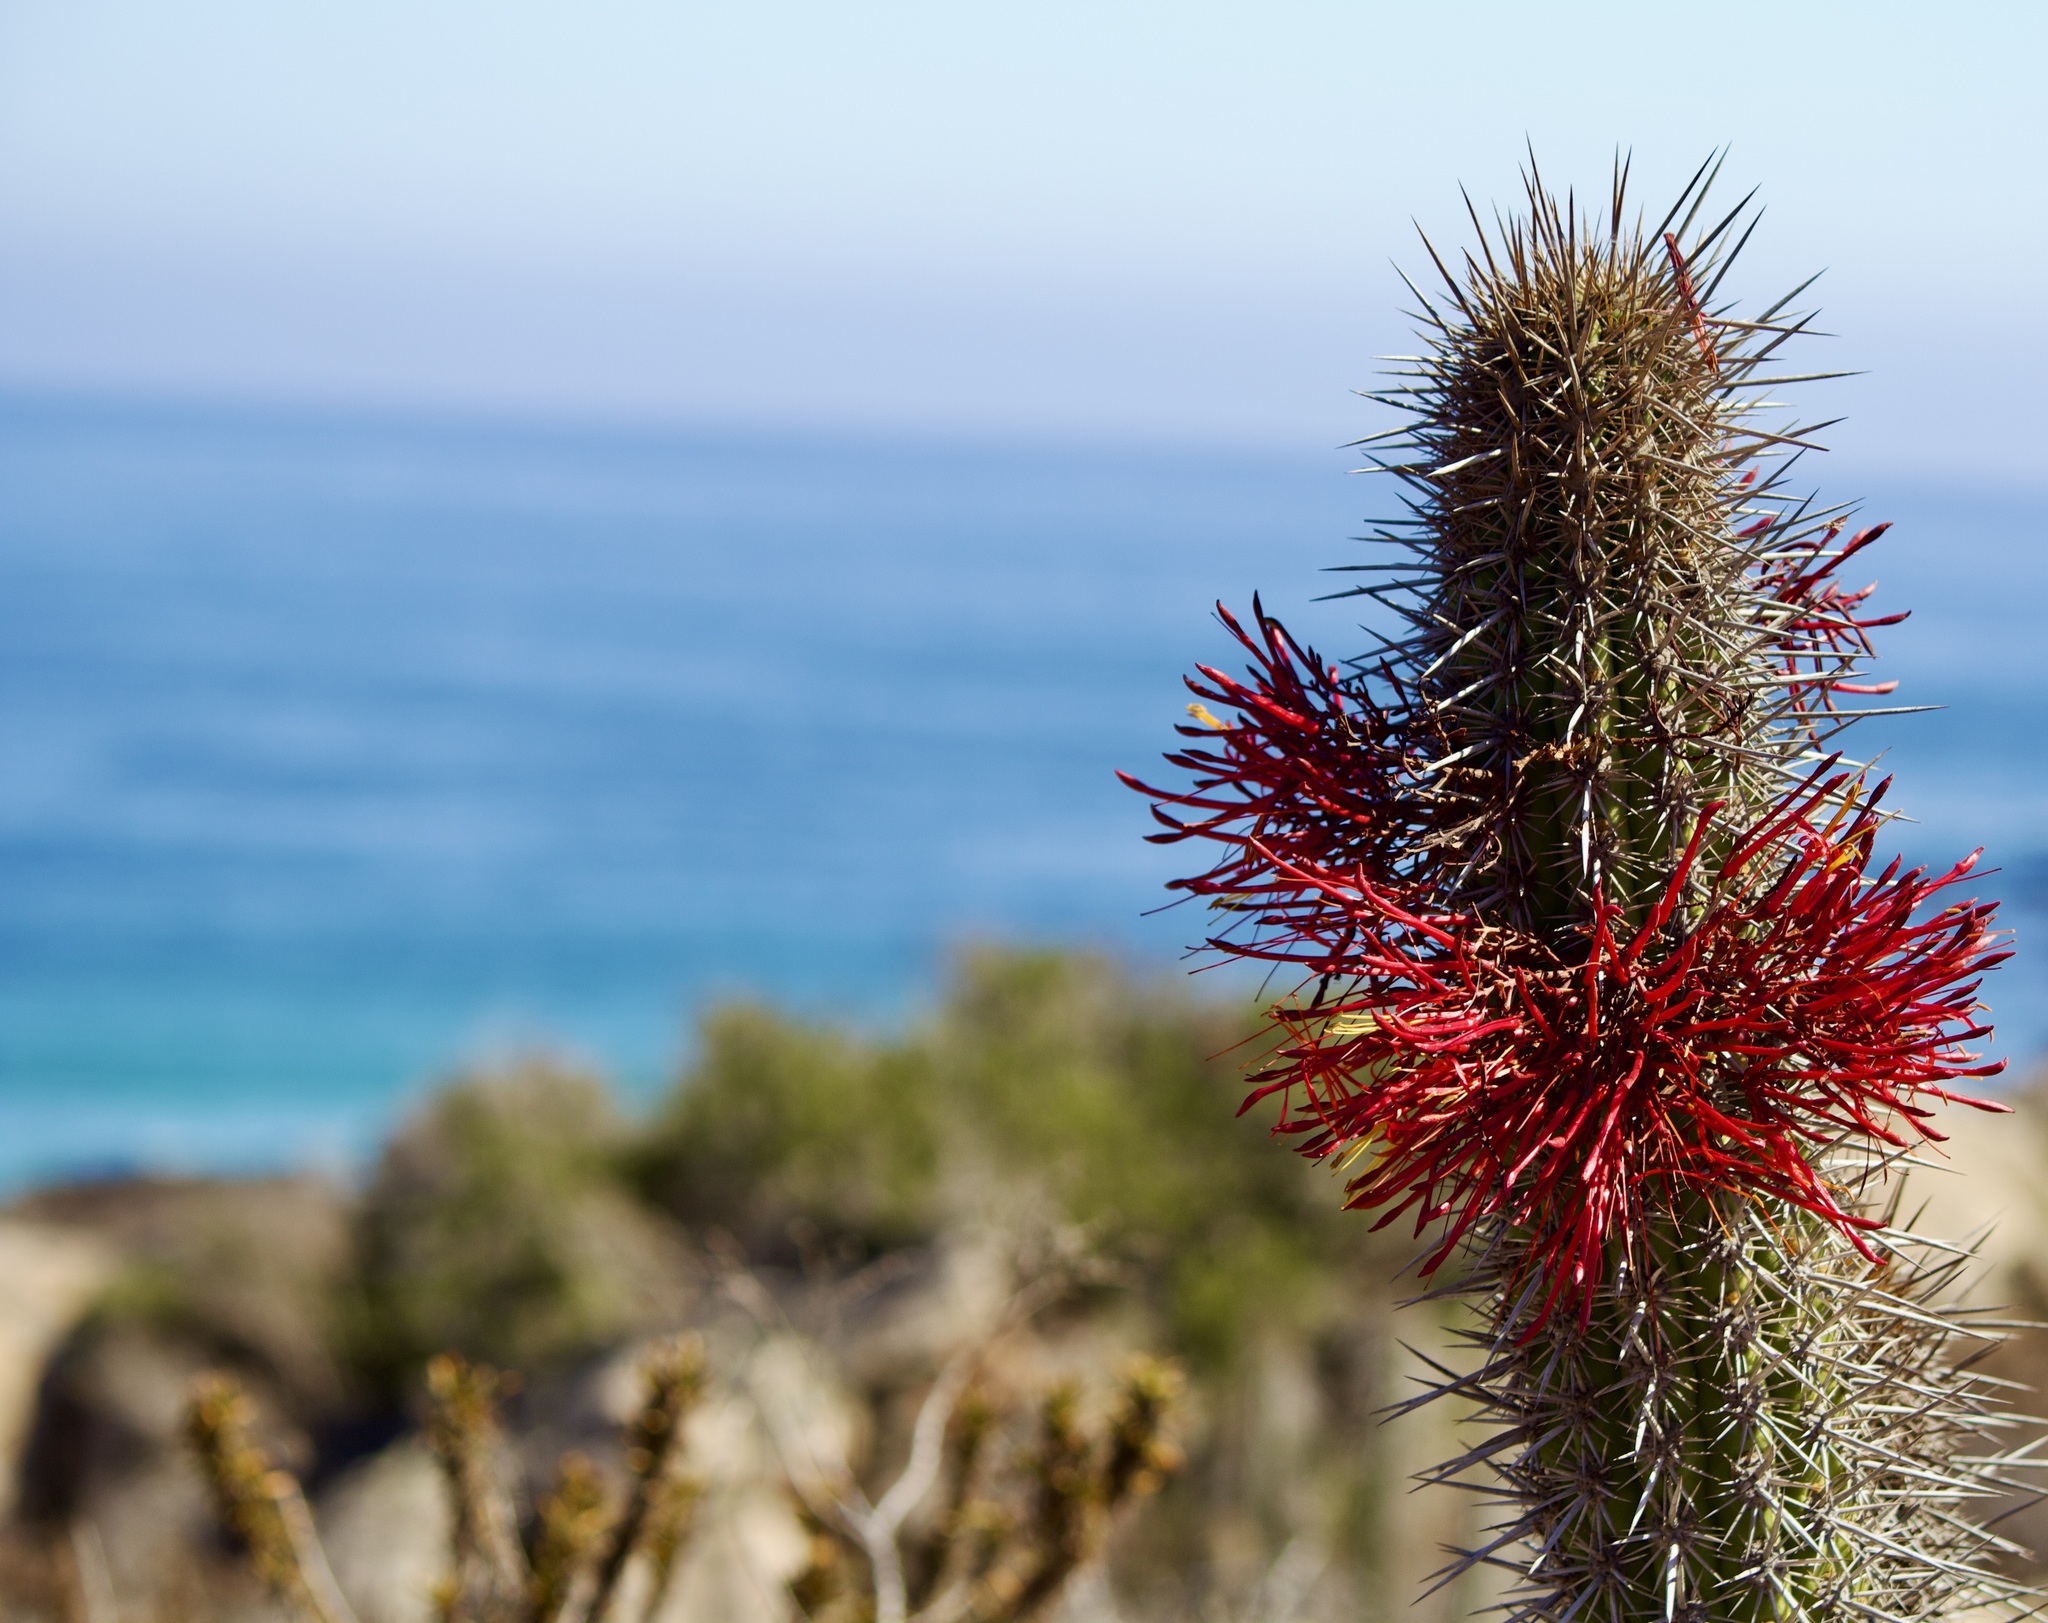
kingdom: Plantae
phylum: Tracheophyta
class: Magnoliopsida
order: Caryophyllales
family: Cactaceae
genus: Leucostele
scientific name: Leucostele chiloensis
